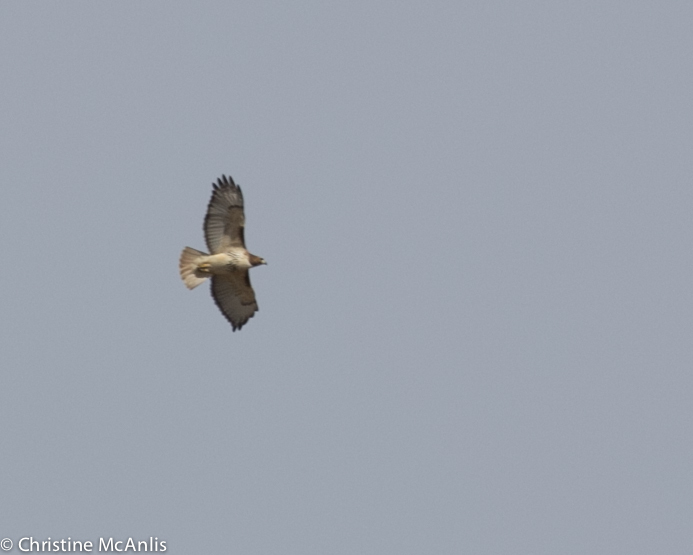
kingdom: Animalia
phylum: Chordata
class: Aves
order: Accipitriformes
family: Accipitridae
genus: Buteo
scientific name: Buteo jamaicensis
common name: Red-tailed hawk
